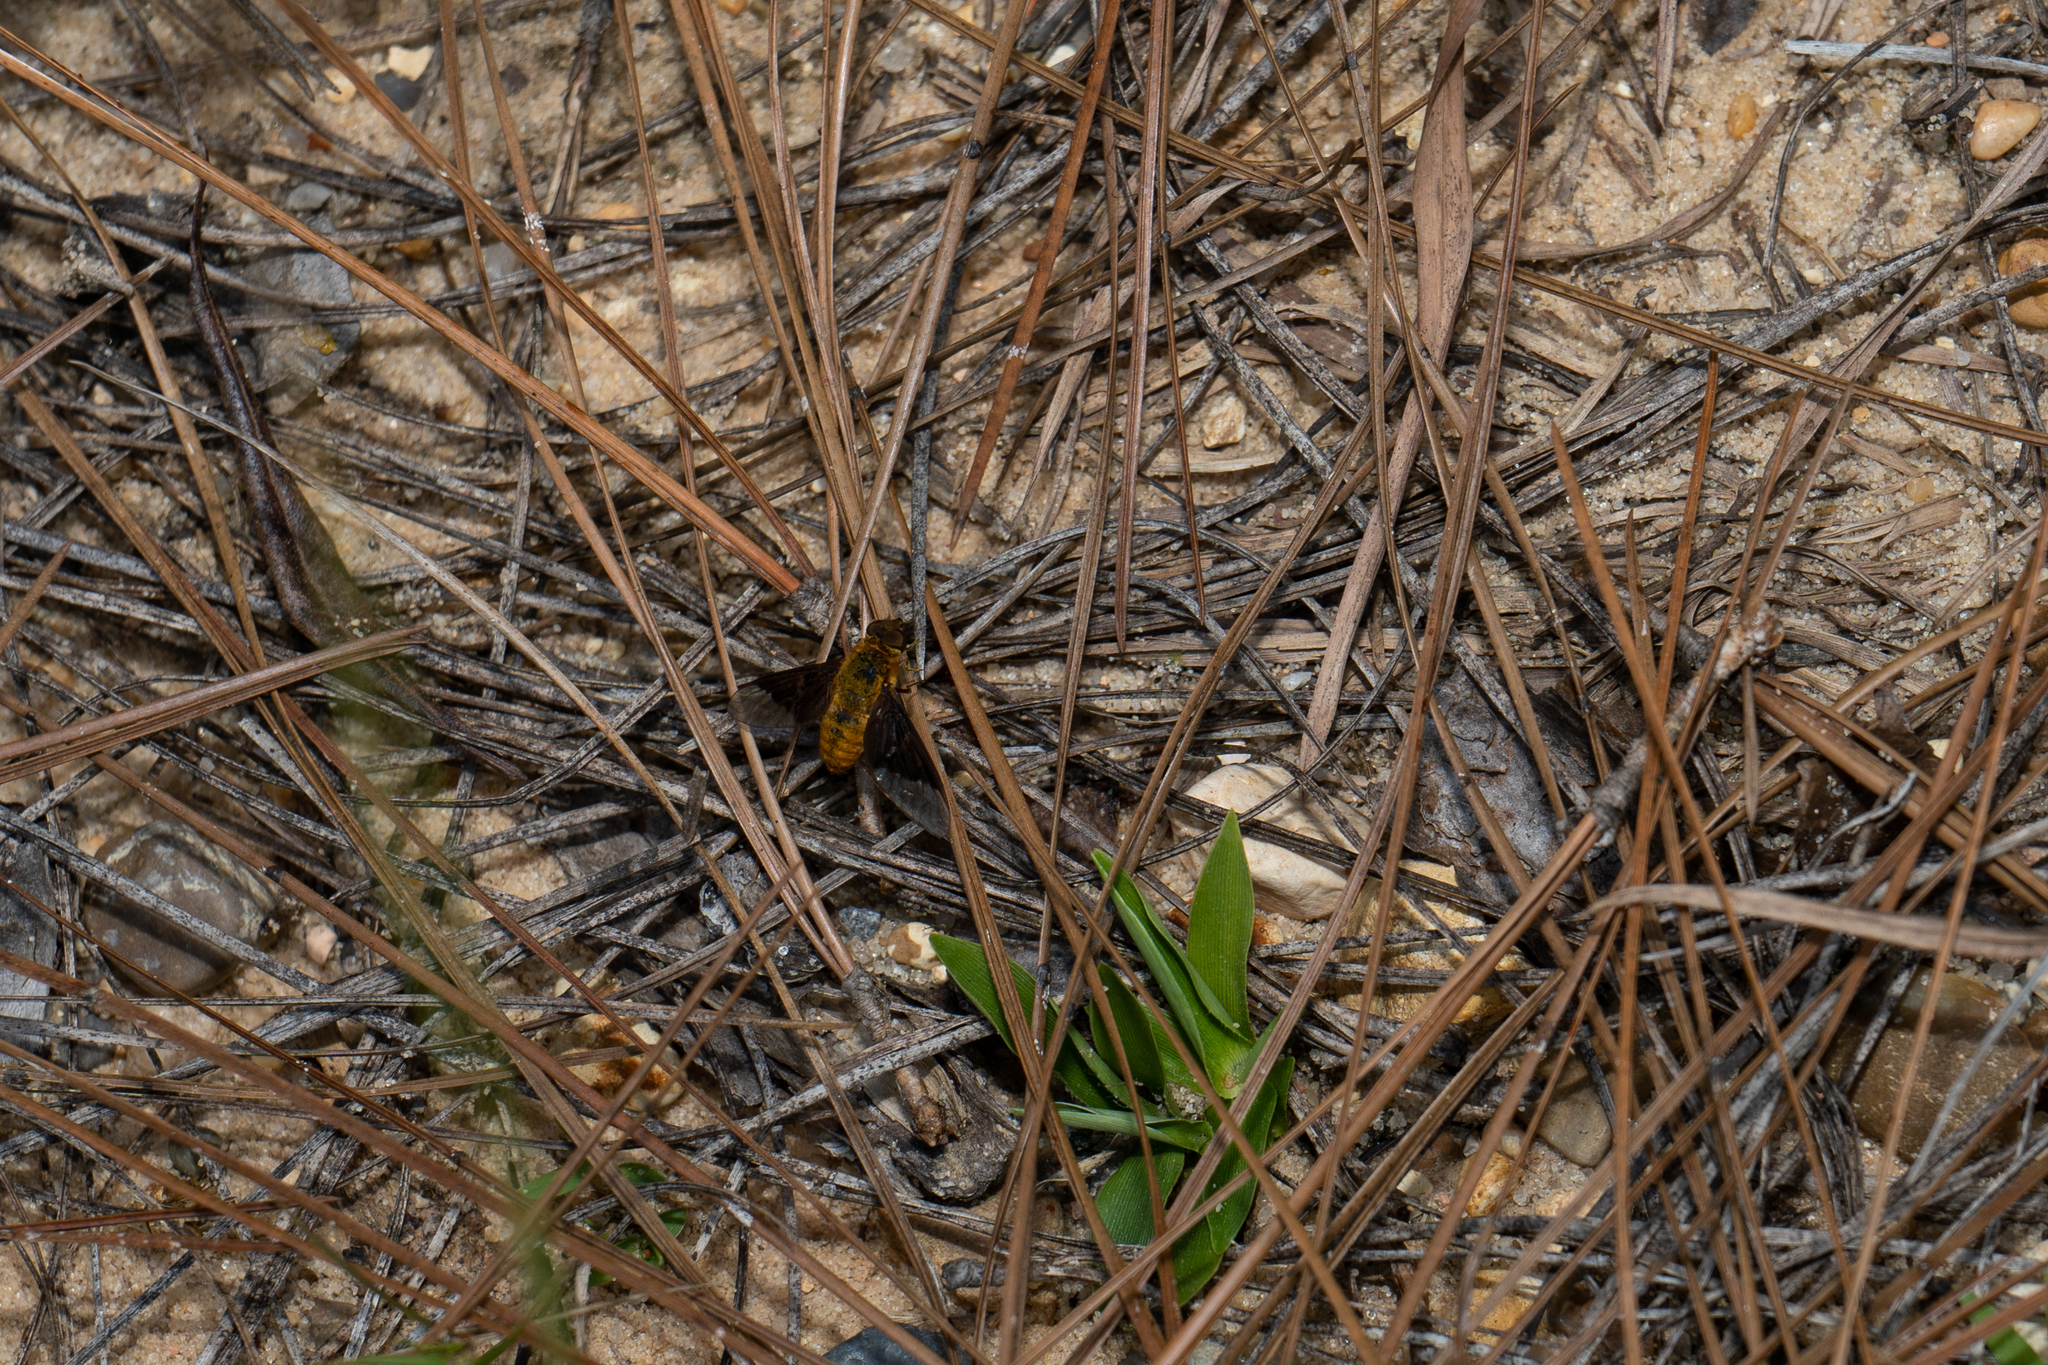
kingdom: Animalia
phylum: Arthropoda
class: Insecta
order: Diptera
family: Bombyliidae
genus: Chrysanthrax
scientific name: Chrysanthrax cypris
